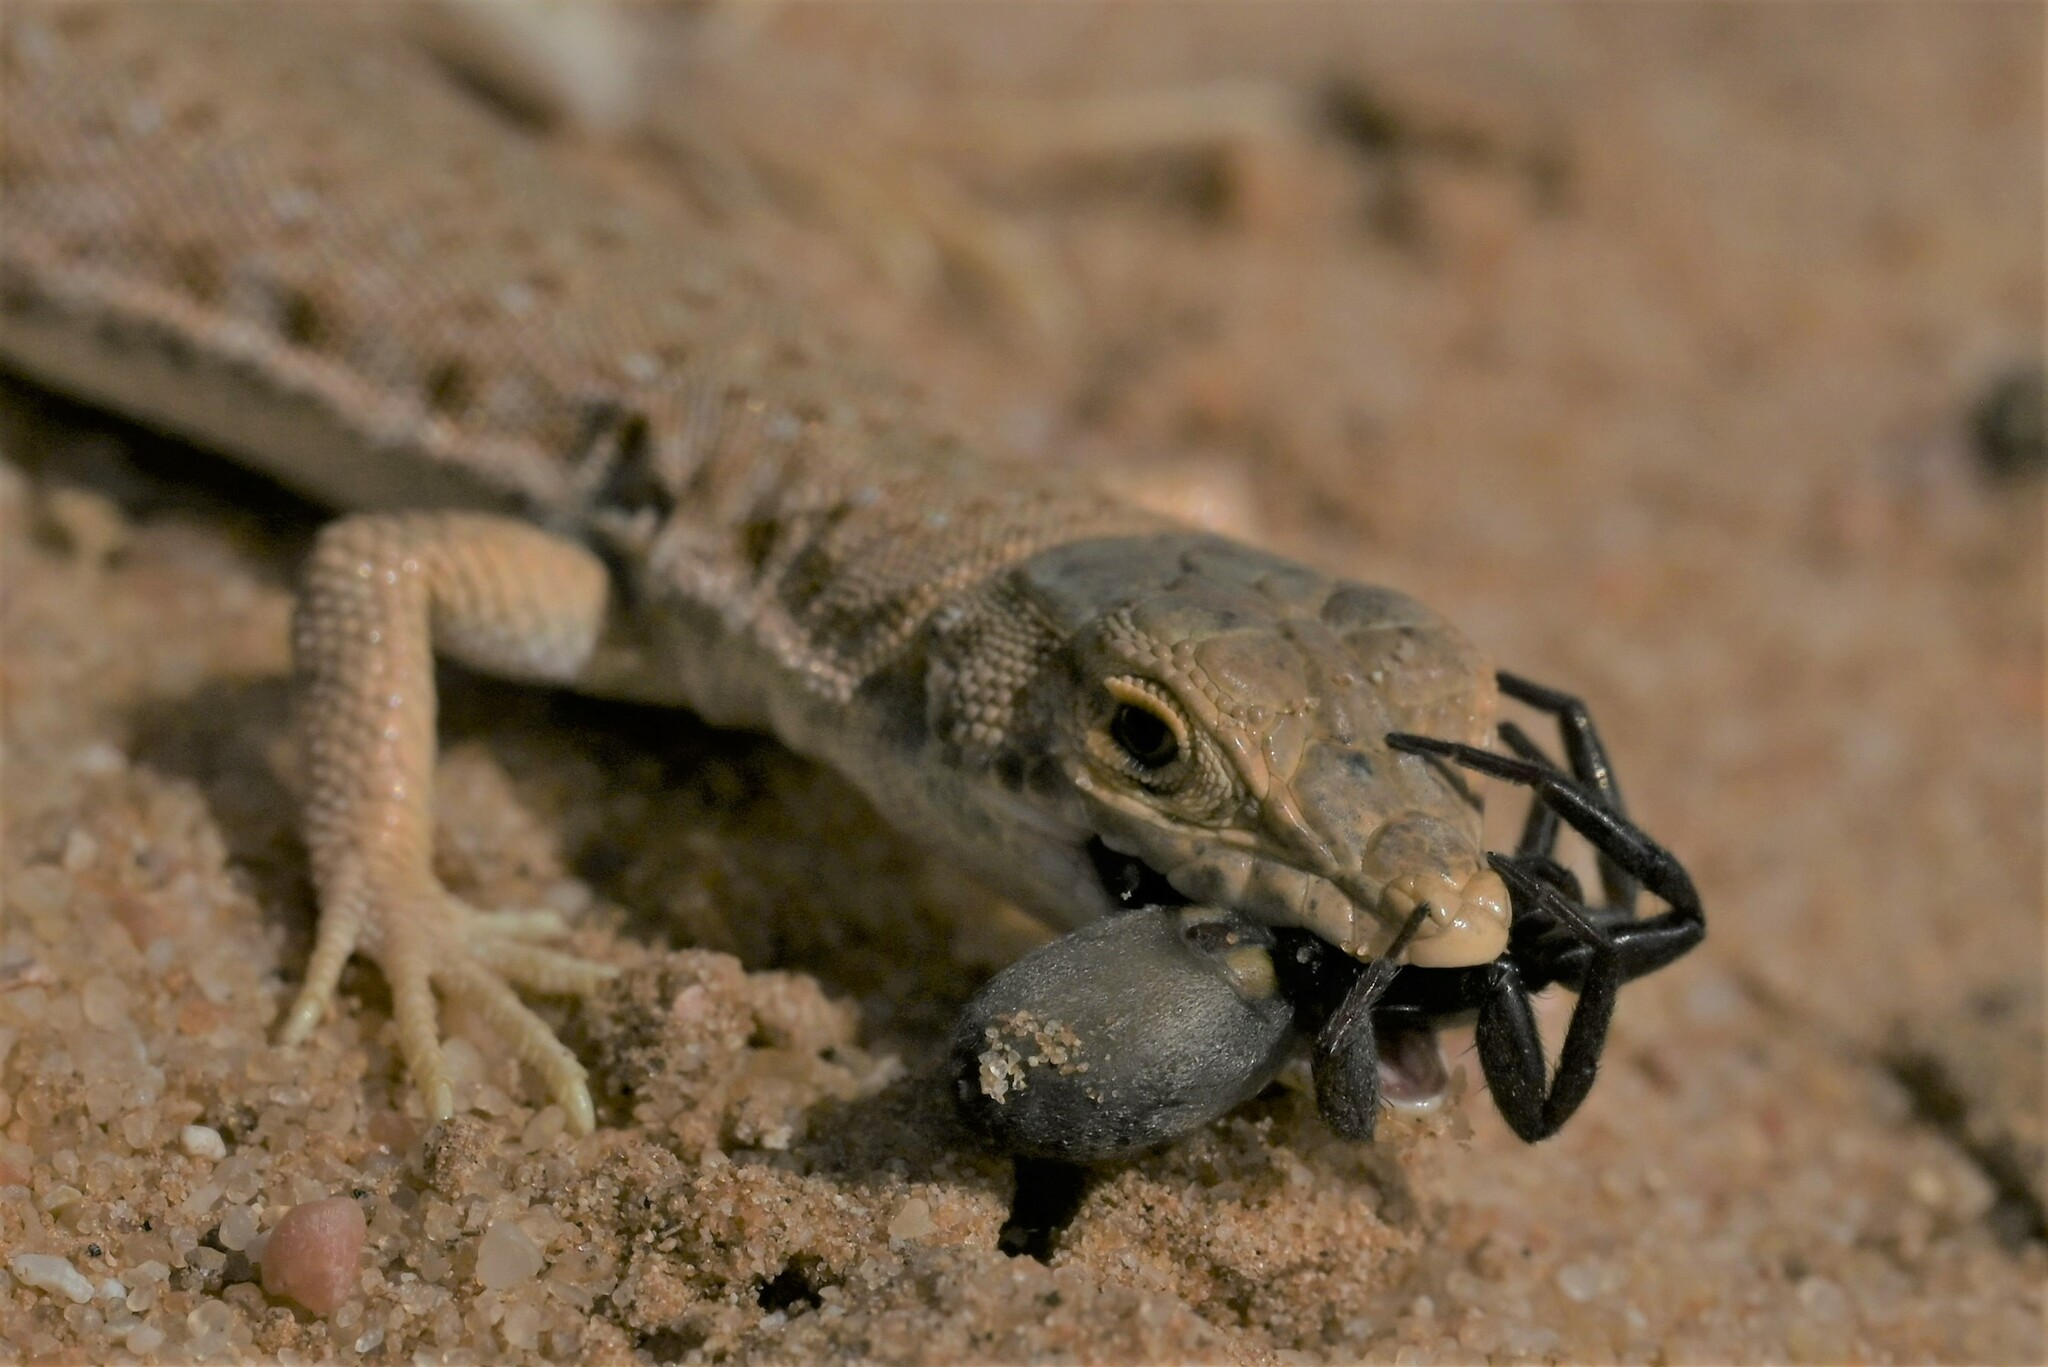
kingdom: Animalia
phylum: Chordata
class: Squamata
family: Lacertidae
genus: Mesalina
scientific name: Mesalina brevirostris
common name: Blanford's short-nosed desert lizard
